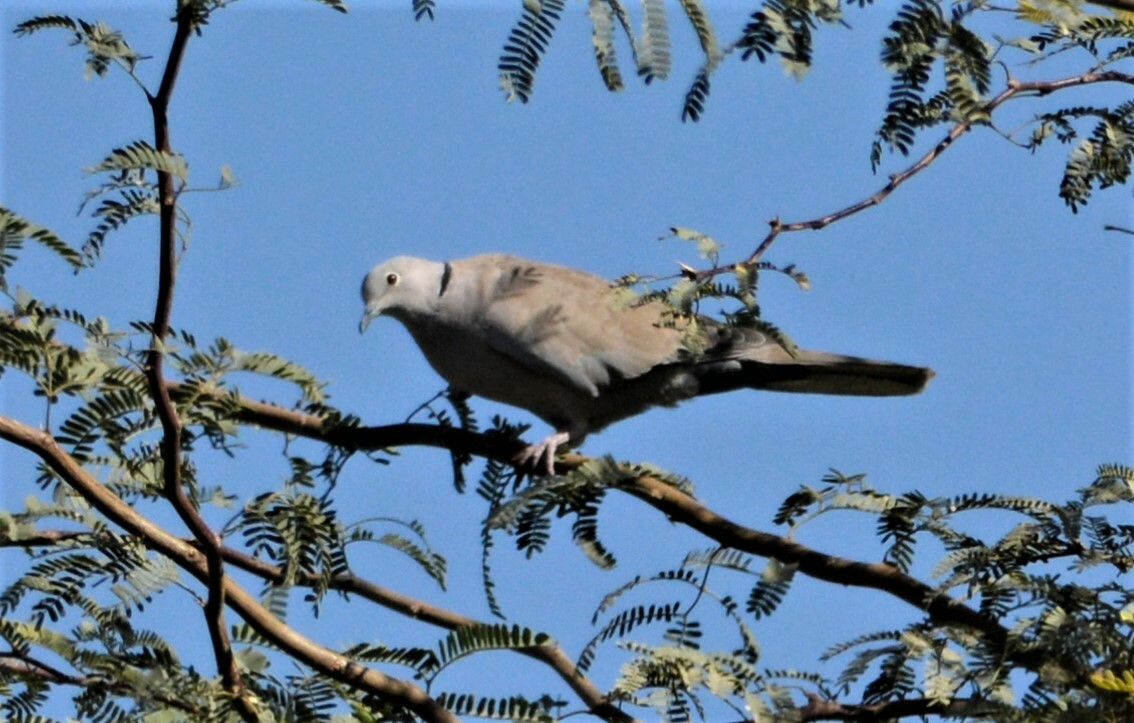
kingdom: Animalia
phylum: Chordata
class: Aves
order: Columbiformes
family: Columbidae
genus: Streptopelia
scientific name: Streptopelia roseogrisea
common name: African collared dove
